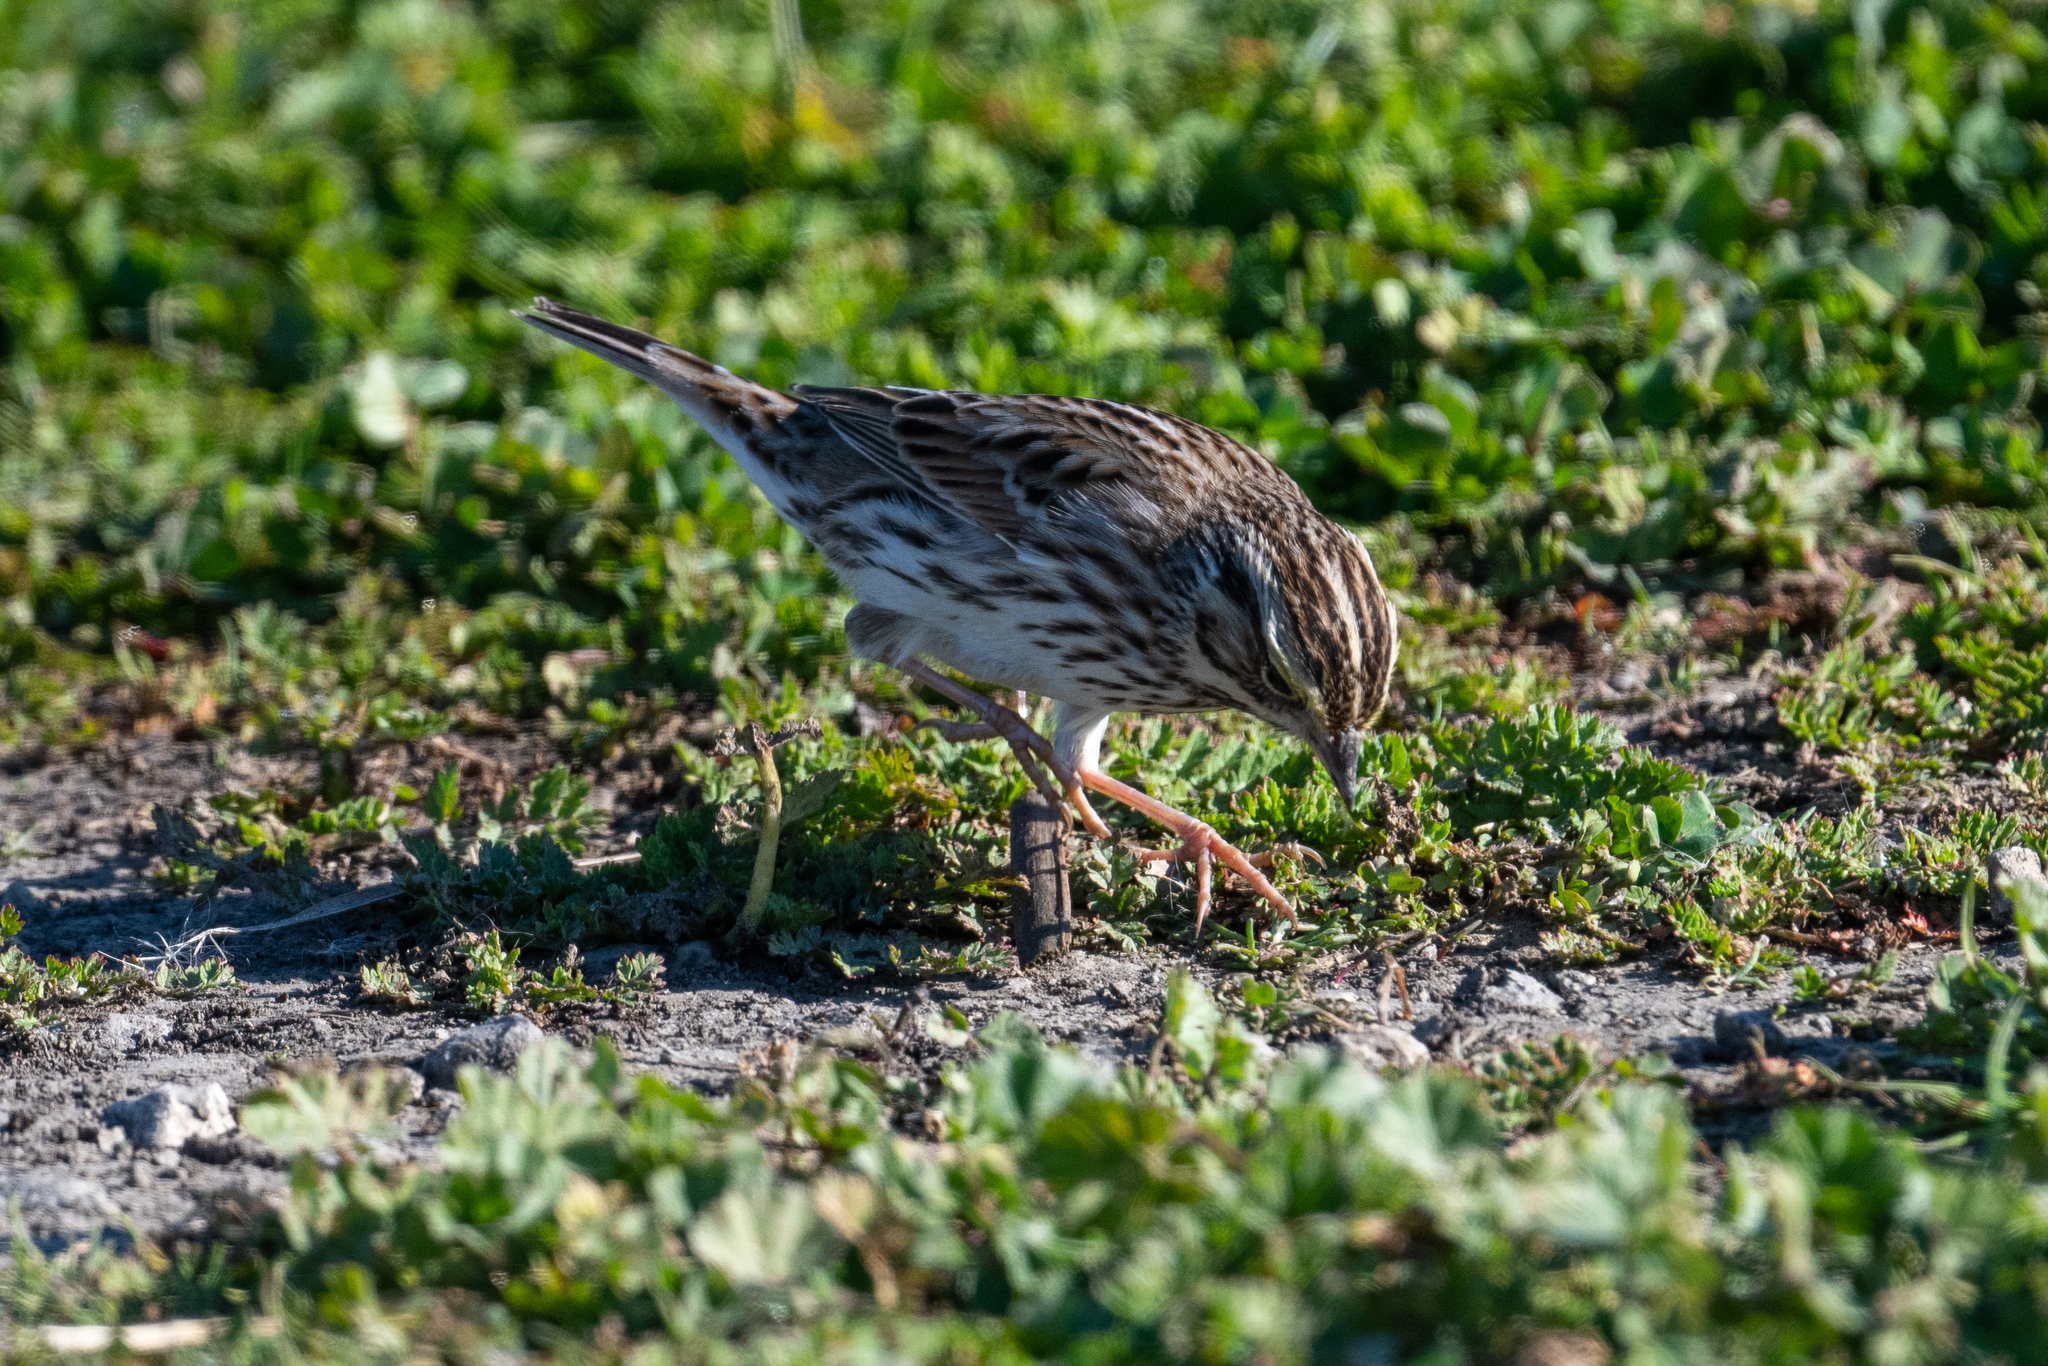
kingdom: Animalia
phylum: Chordata
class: Aves
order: Passeriformes
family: Passerellidae
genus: Passerculus
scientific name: Passerculus sandwichensis
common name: Savannah sparrow
